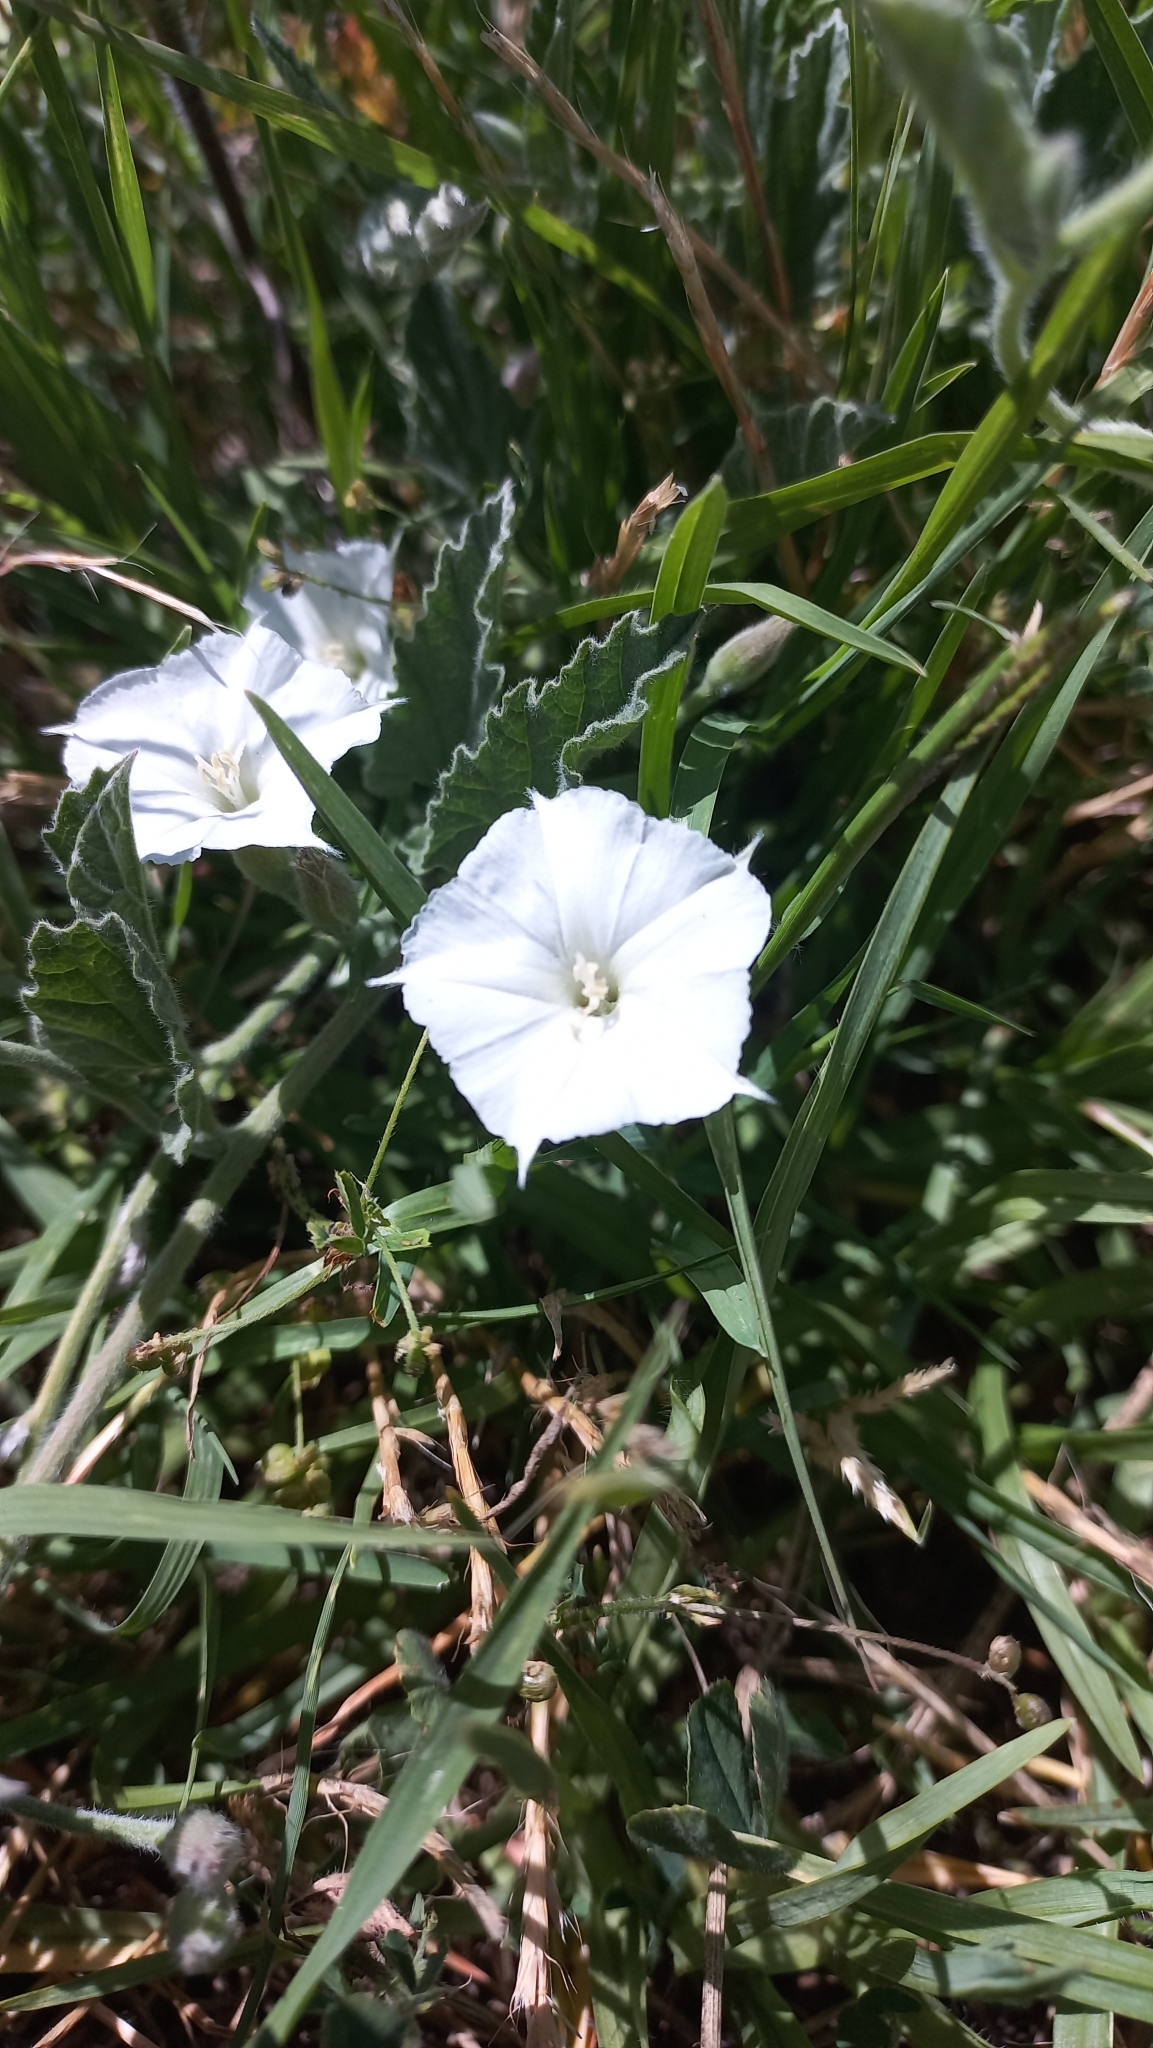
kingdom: Plantae
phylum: Tracheophyta
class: Magnoliopsida
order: Solanales
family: Convolvulaceae
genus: Convolvulus
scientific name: Convolvulus hermanniae
